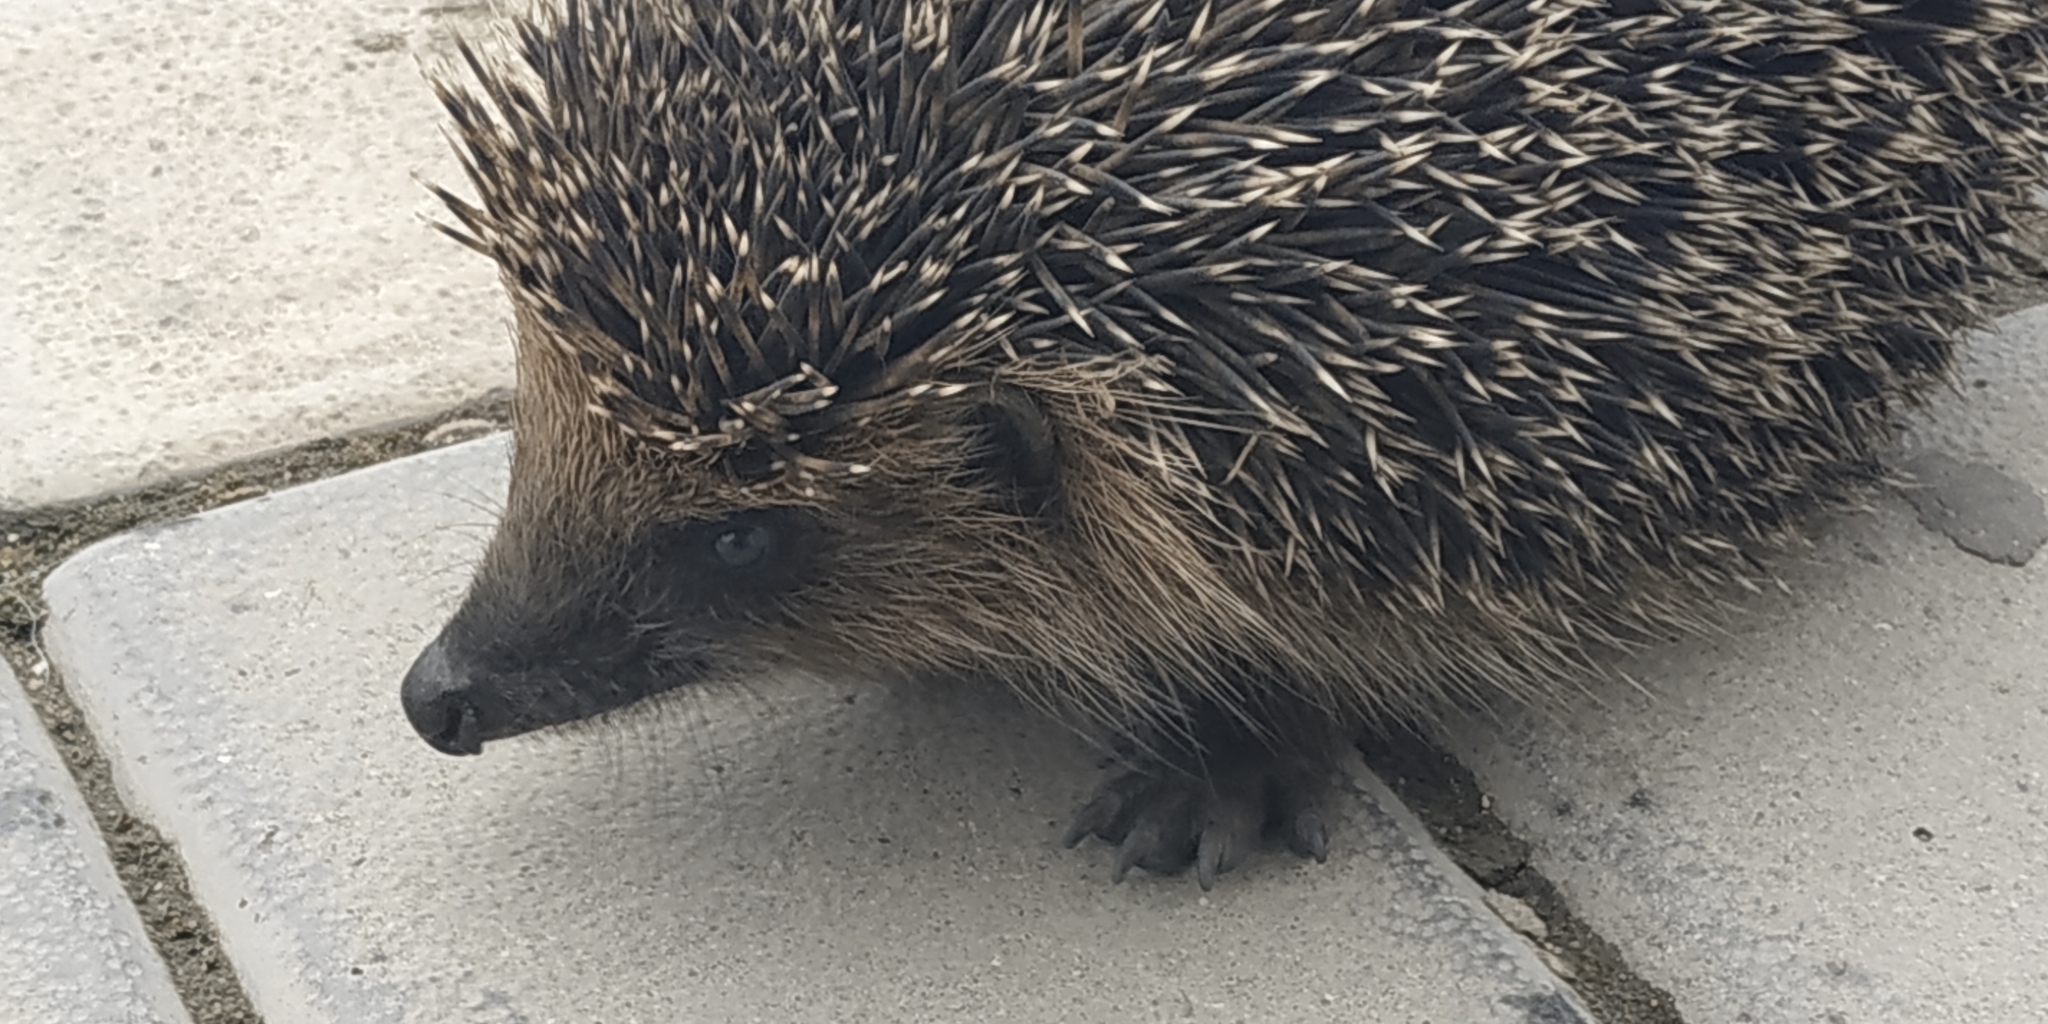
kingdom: Animalia
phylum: Chordata
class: Mammalia
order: Erinaceomorpha
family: Erinaceidae
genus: Erinaceus
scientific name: Erinaceus roumanicus
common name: Northern white-breasted hedgehog
